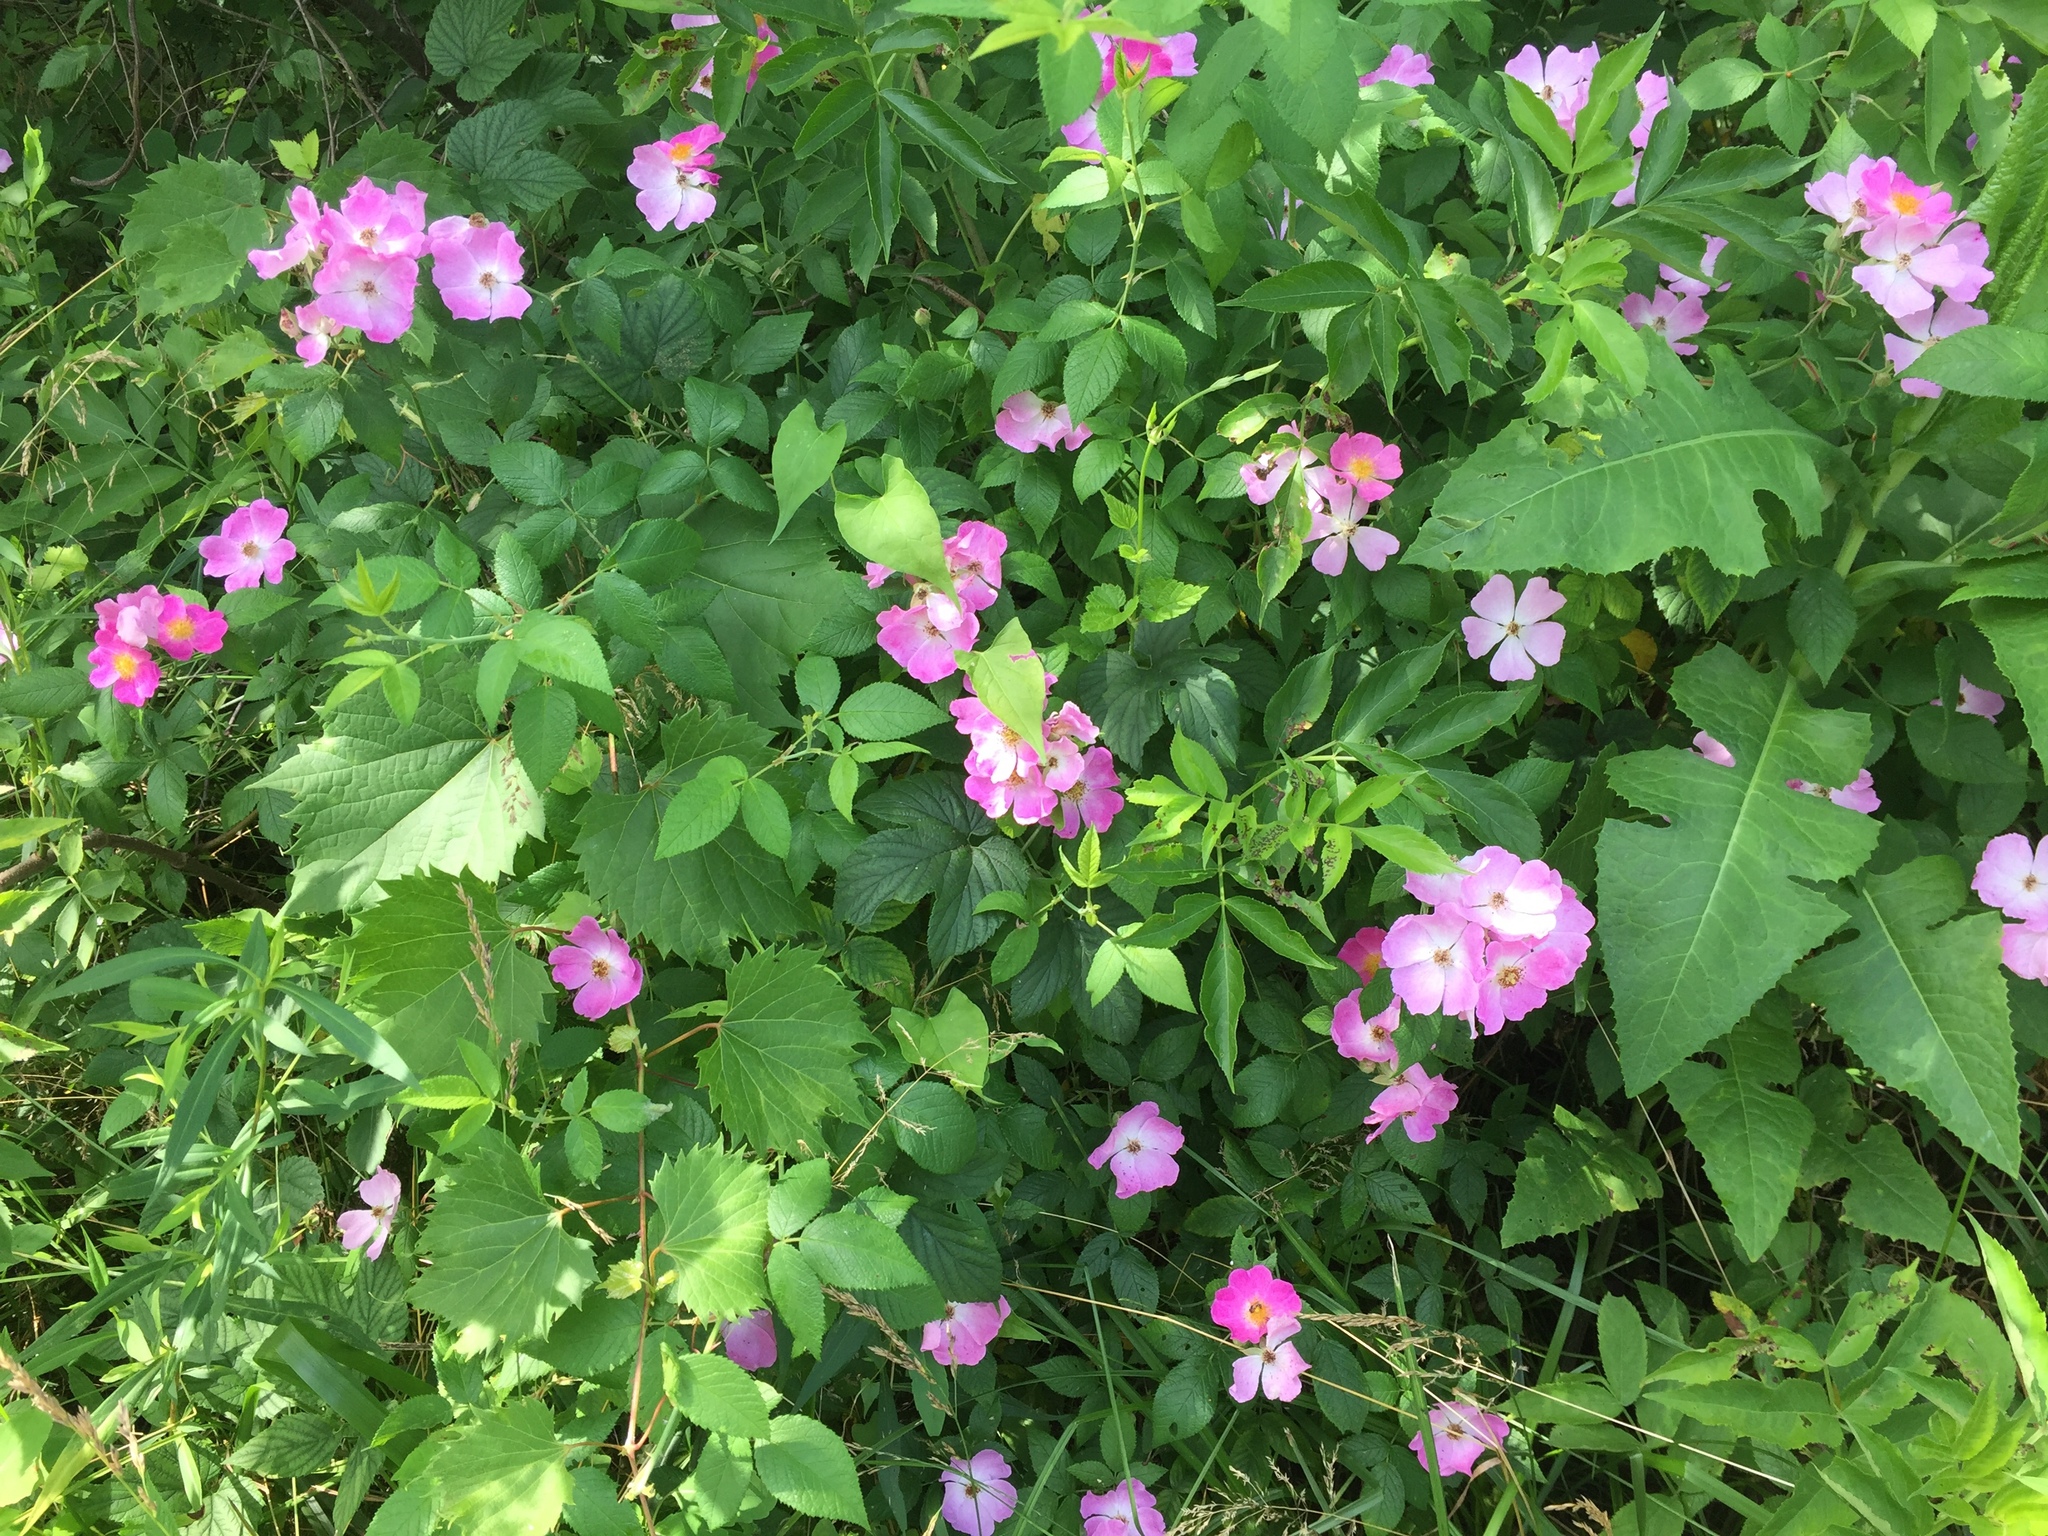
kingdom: Plantae
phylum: Tracheophyta
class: Magnoliopsida
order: Rosales
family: Rosaceae
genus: Rosa
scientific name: Rosa setigera
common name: Prairie rose
